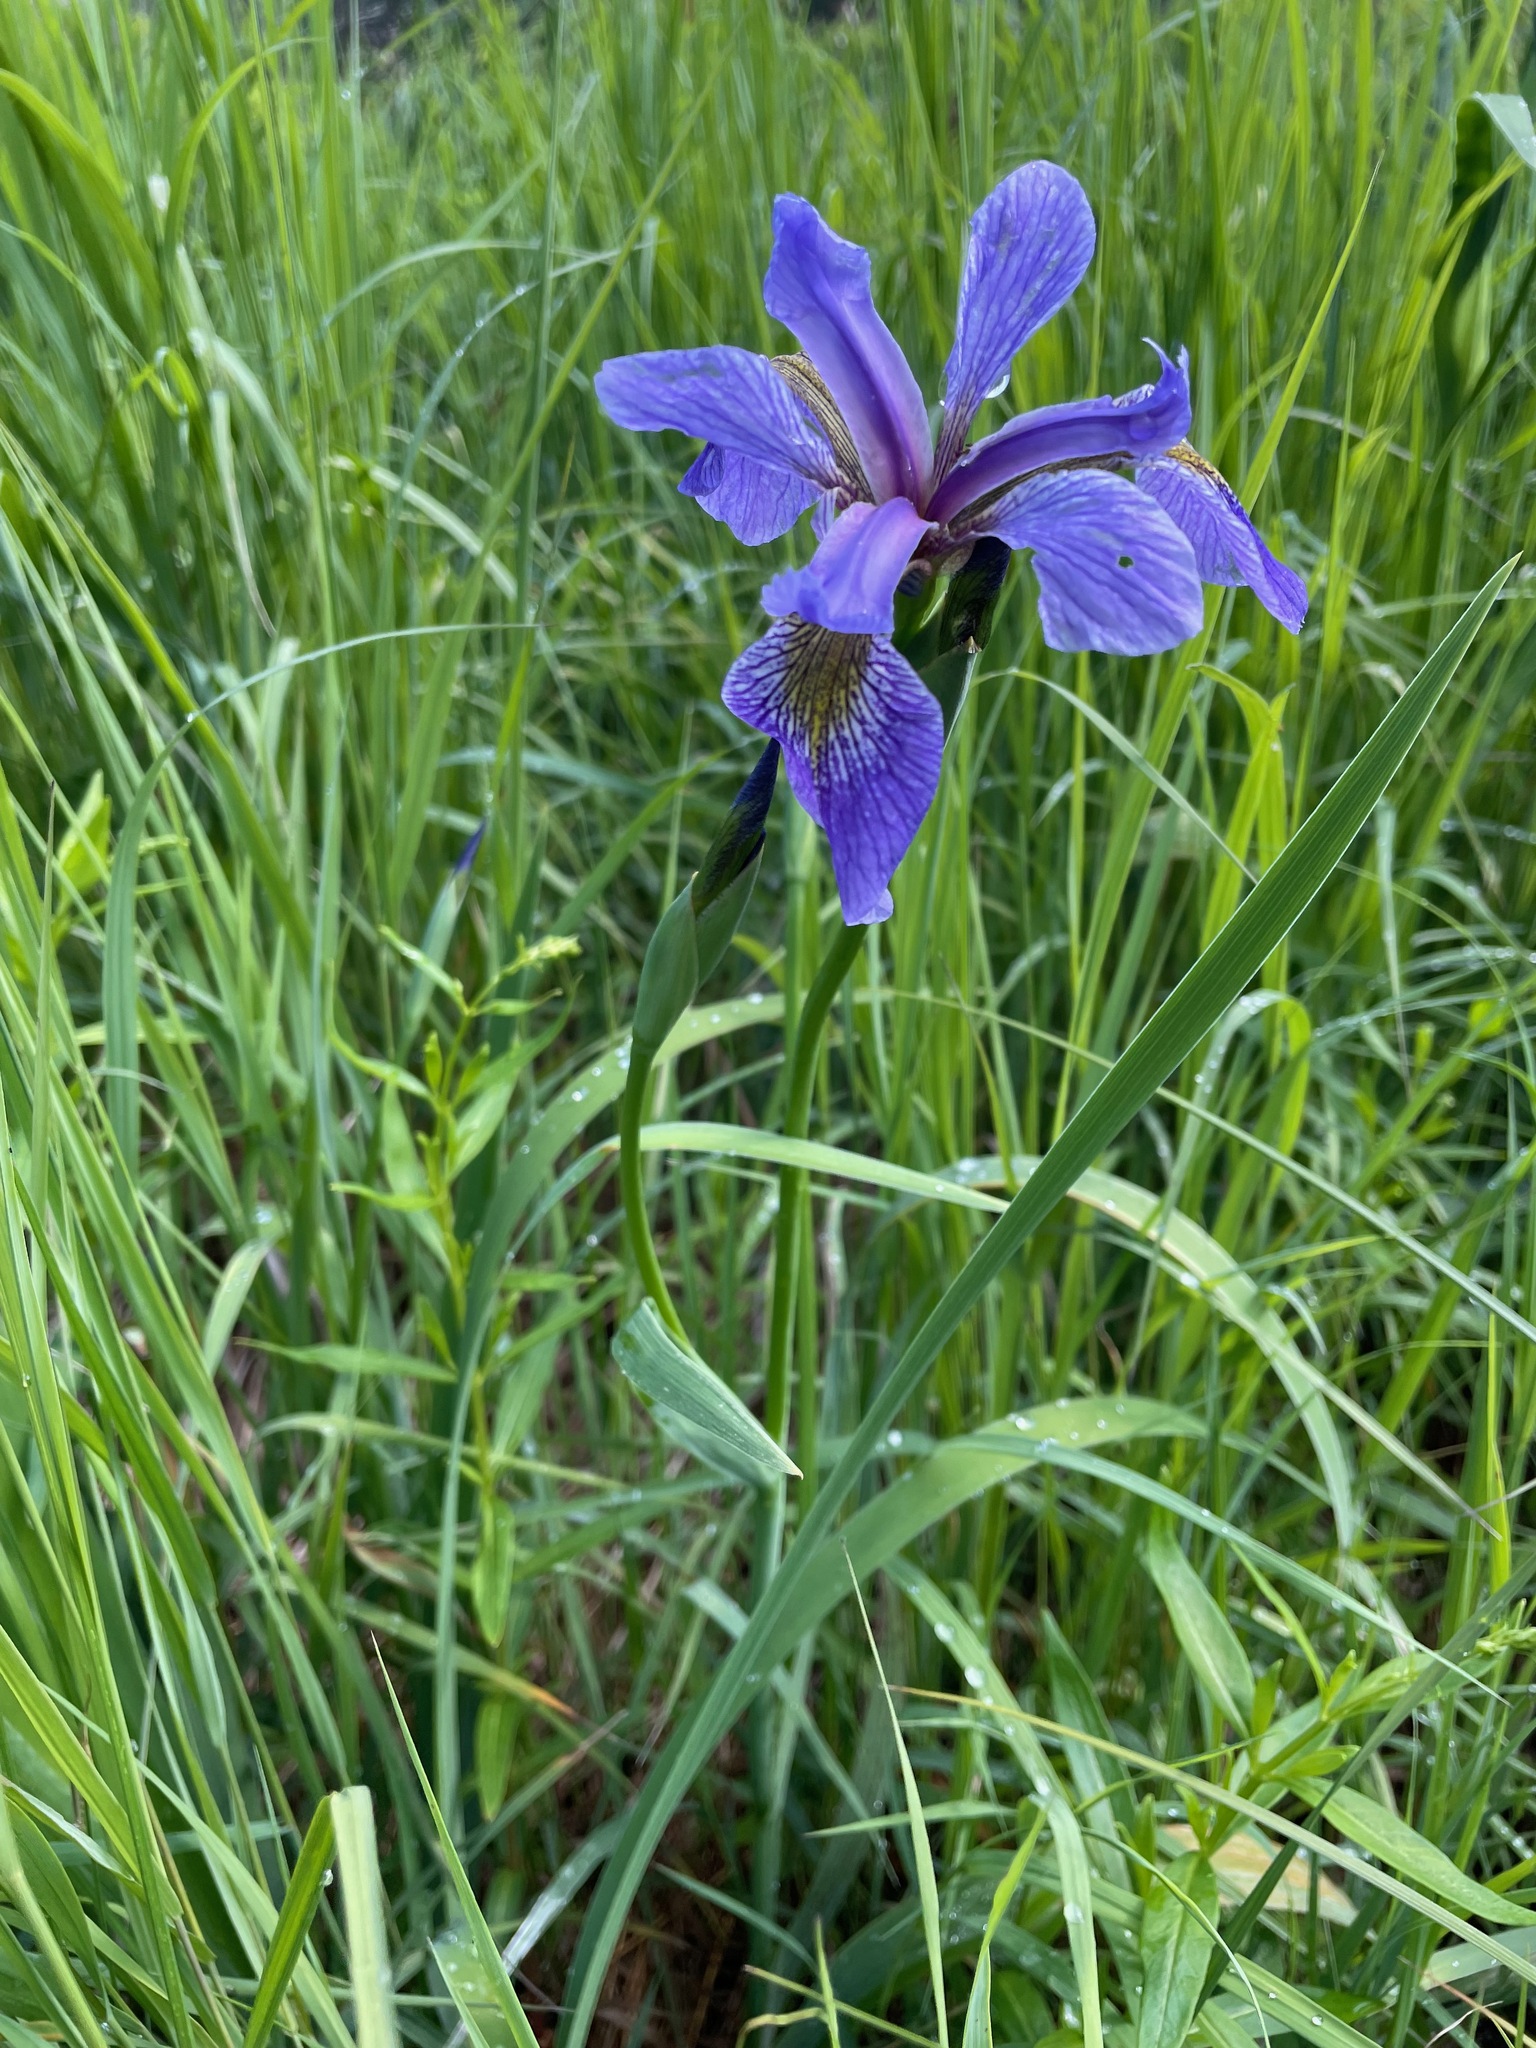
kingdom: Plantae
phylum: Tracheophyta
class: Liliopsida
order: Asparagales
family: Iridaceae
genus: Iris
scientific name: Iris versicolor
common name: Purple iris
